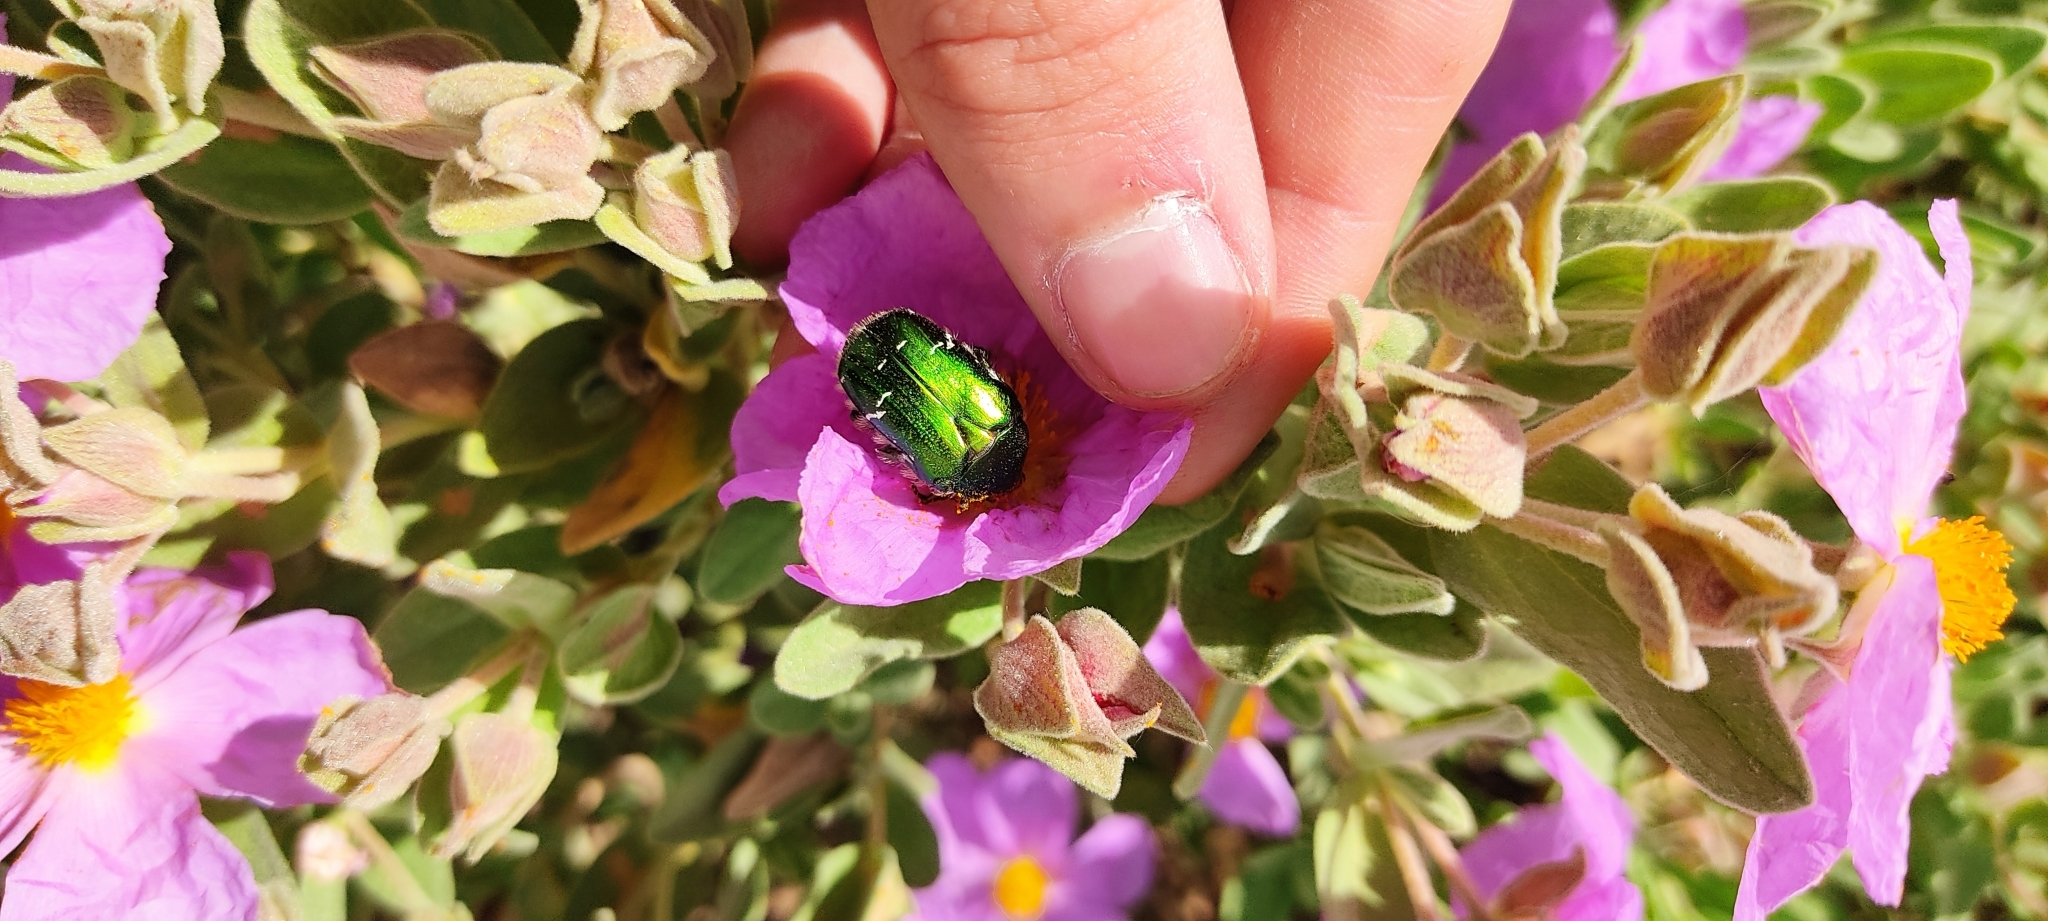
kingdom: Animalia
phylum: Arthropoda
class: Insecta
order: Coleoptera
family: Scarabaeidae
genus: Cetonia
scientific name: Cetonia aurata
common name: Rose chafer
